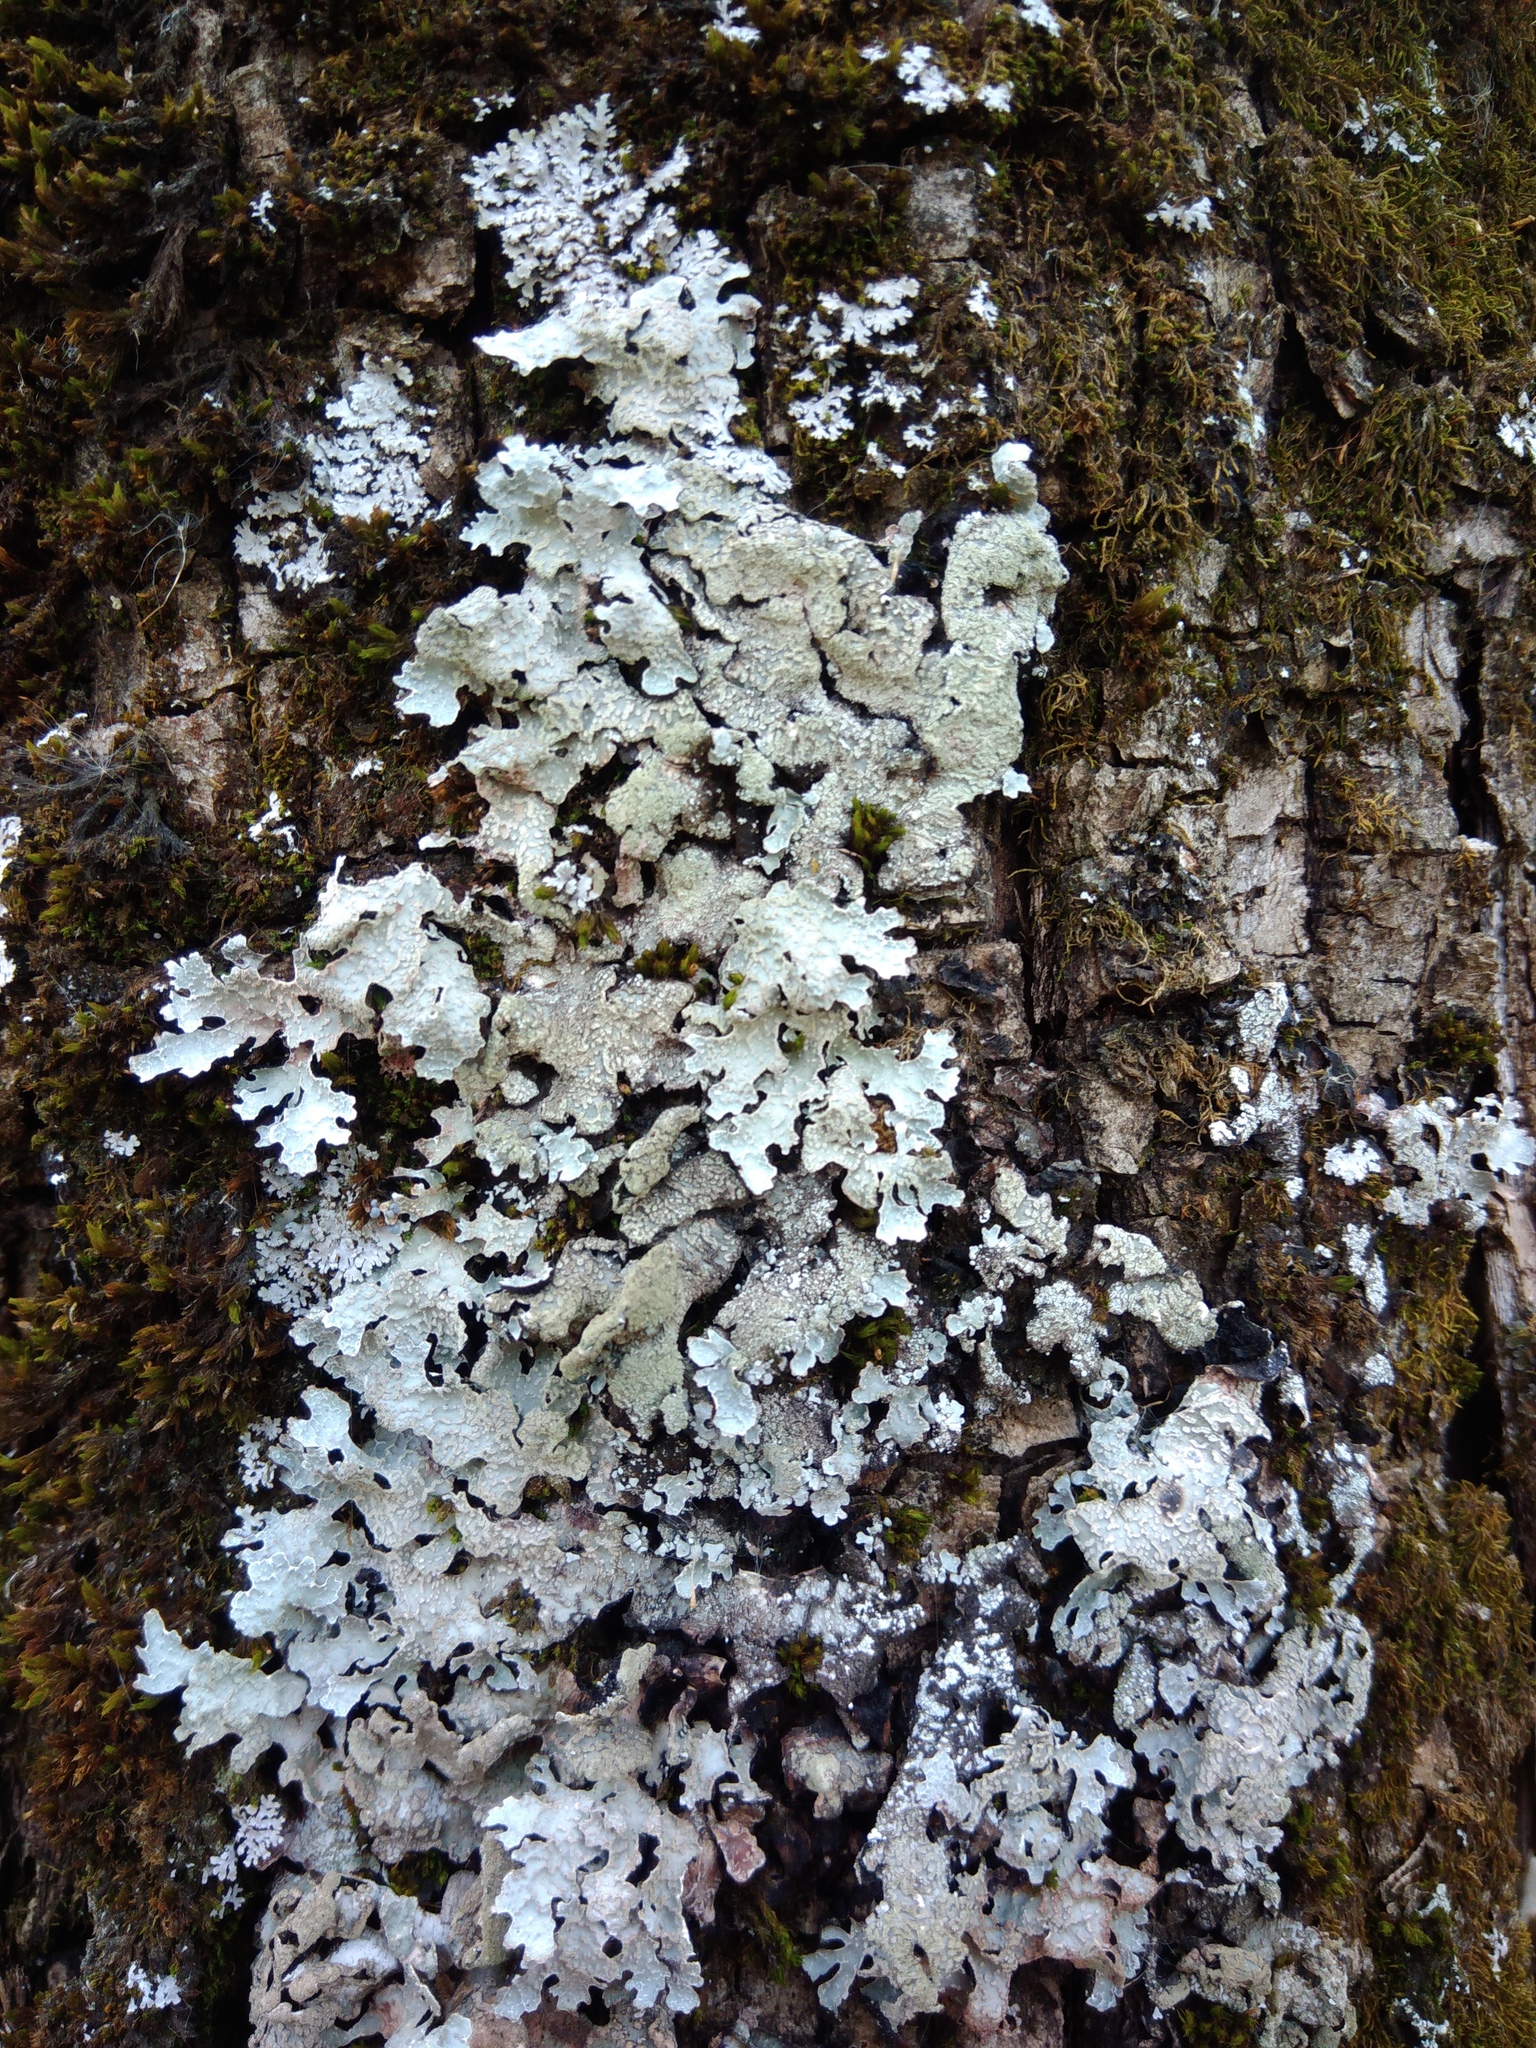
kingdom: Fungi
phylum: Ascomycota
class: Lecanoromycetes
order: Lecanorales
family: Parmeliaceae
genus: Parmelia
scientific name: Parmelia sulcata
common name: Netted shield lichen
